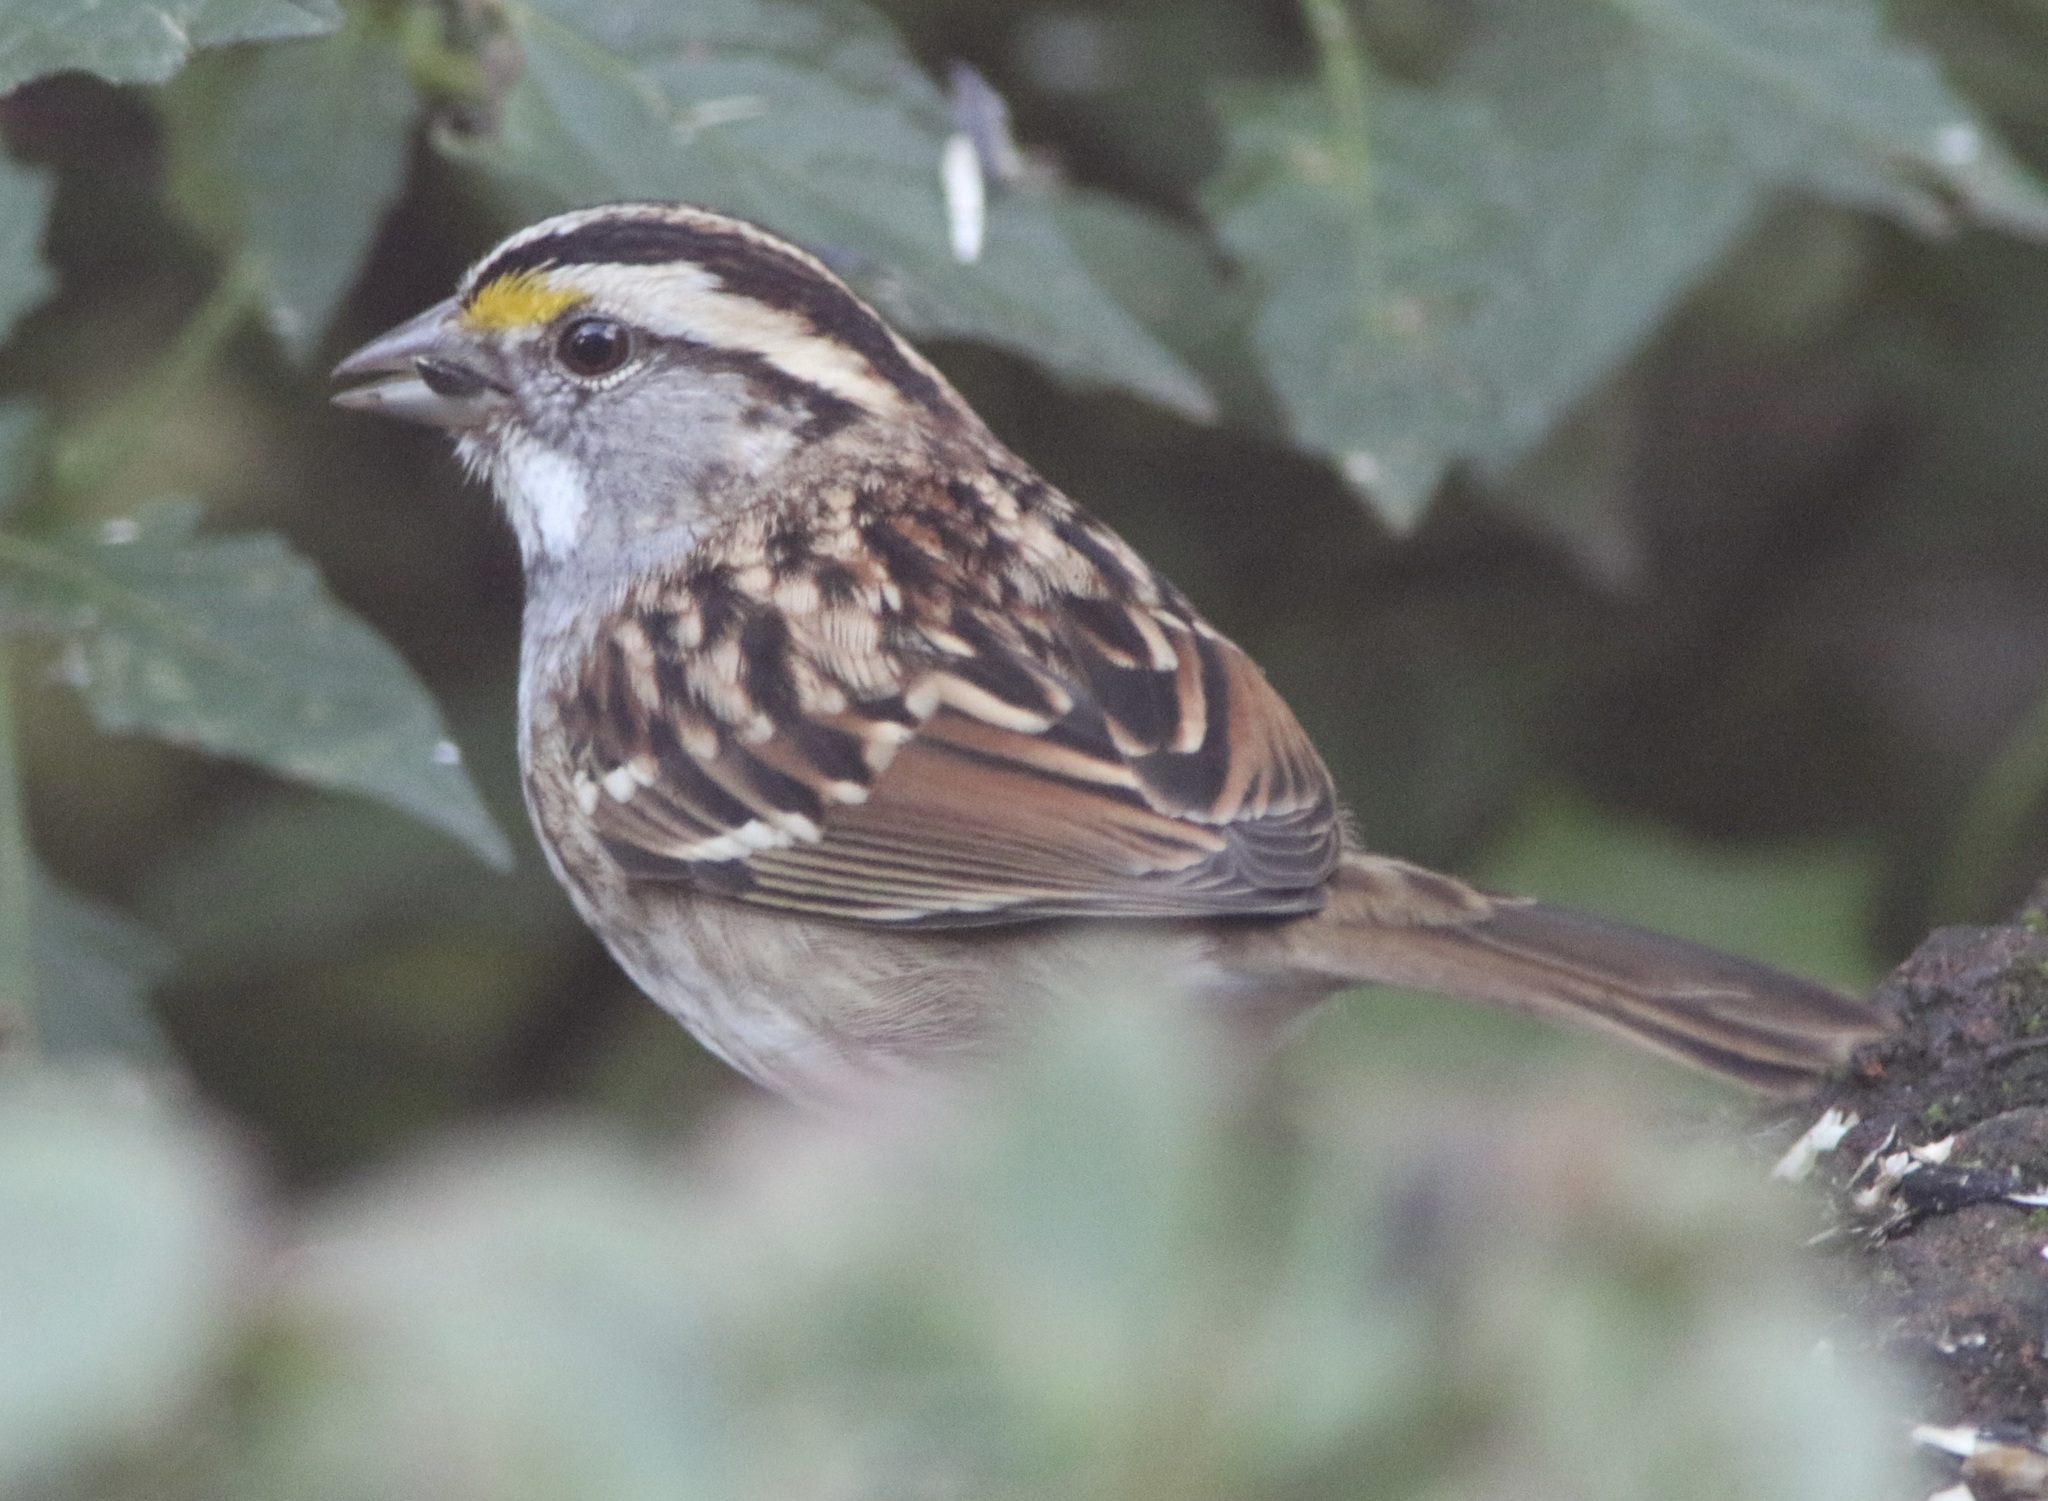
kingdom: Animalia
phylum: Chordata
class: Aves
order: Passeriformes
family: Passerellidae
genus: Zonotrichia
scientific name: Zonotrichia albicollis
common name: White-throated sparrow
